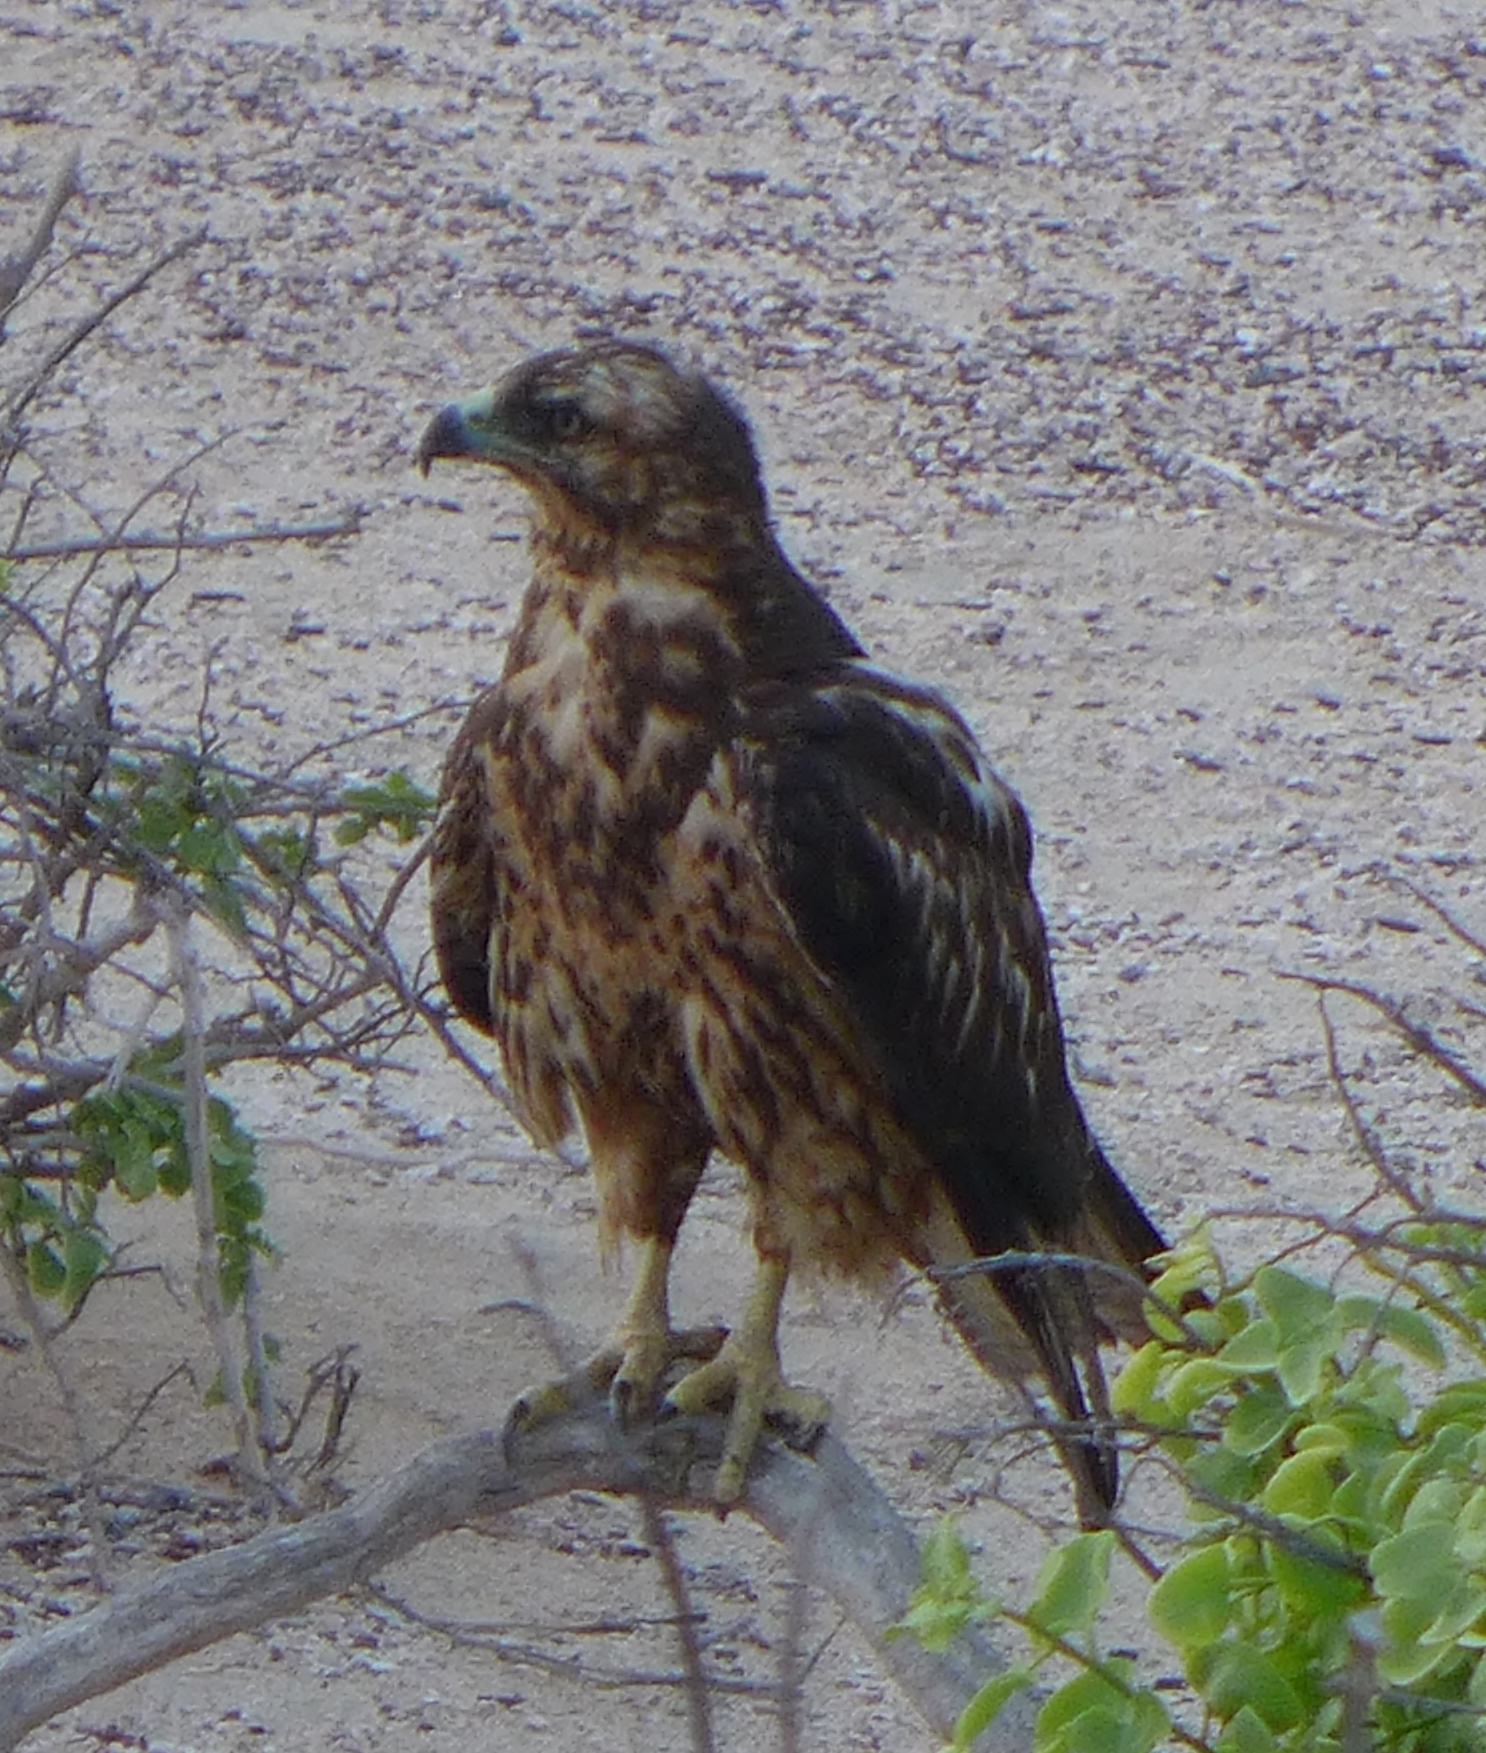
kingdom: Animalia
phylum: Chordata
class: Aves
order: Accipitriformes
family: Accipitridae
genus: Buteo
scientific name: Buteo galapagoensis
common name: Galapagos hawk
